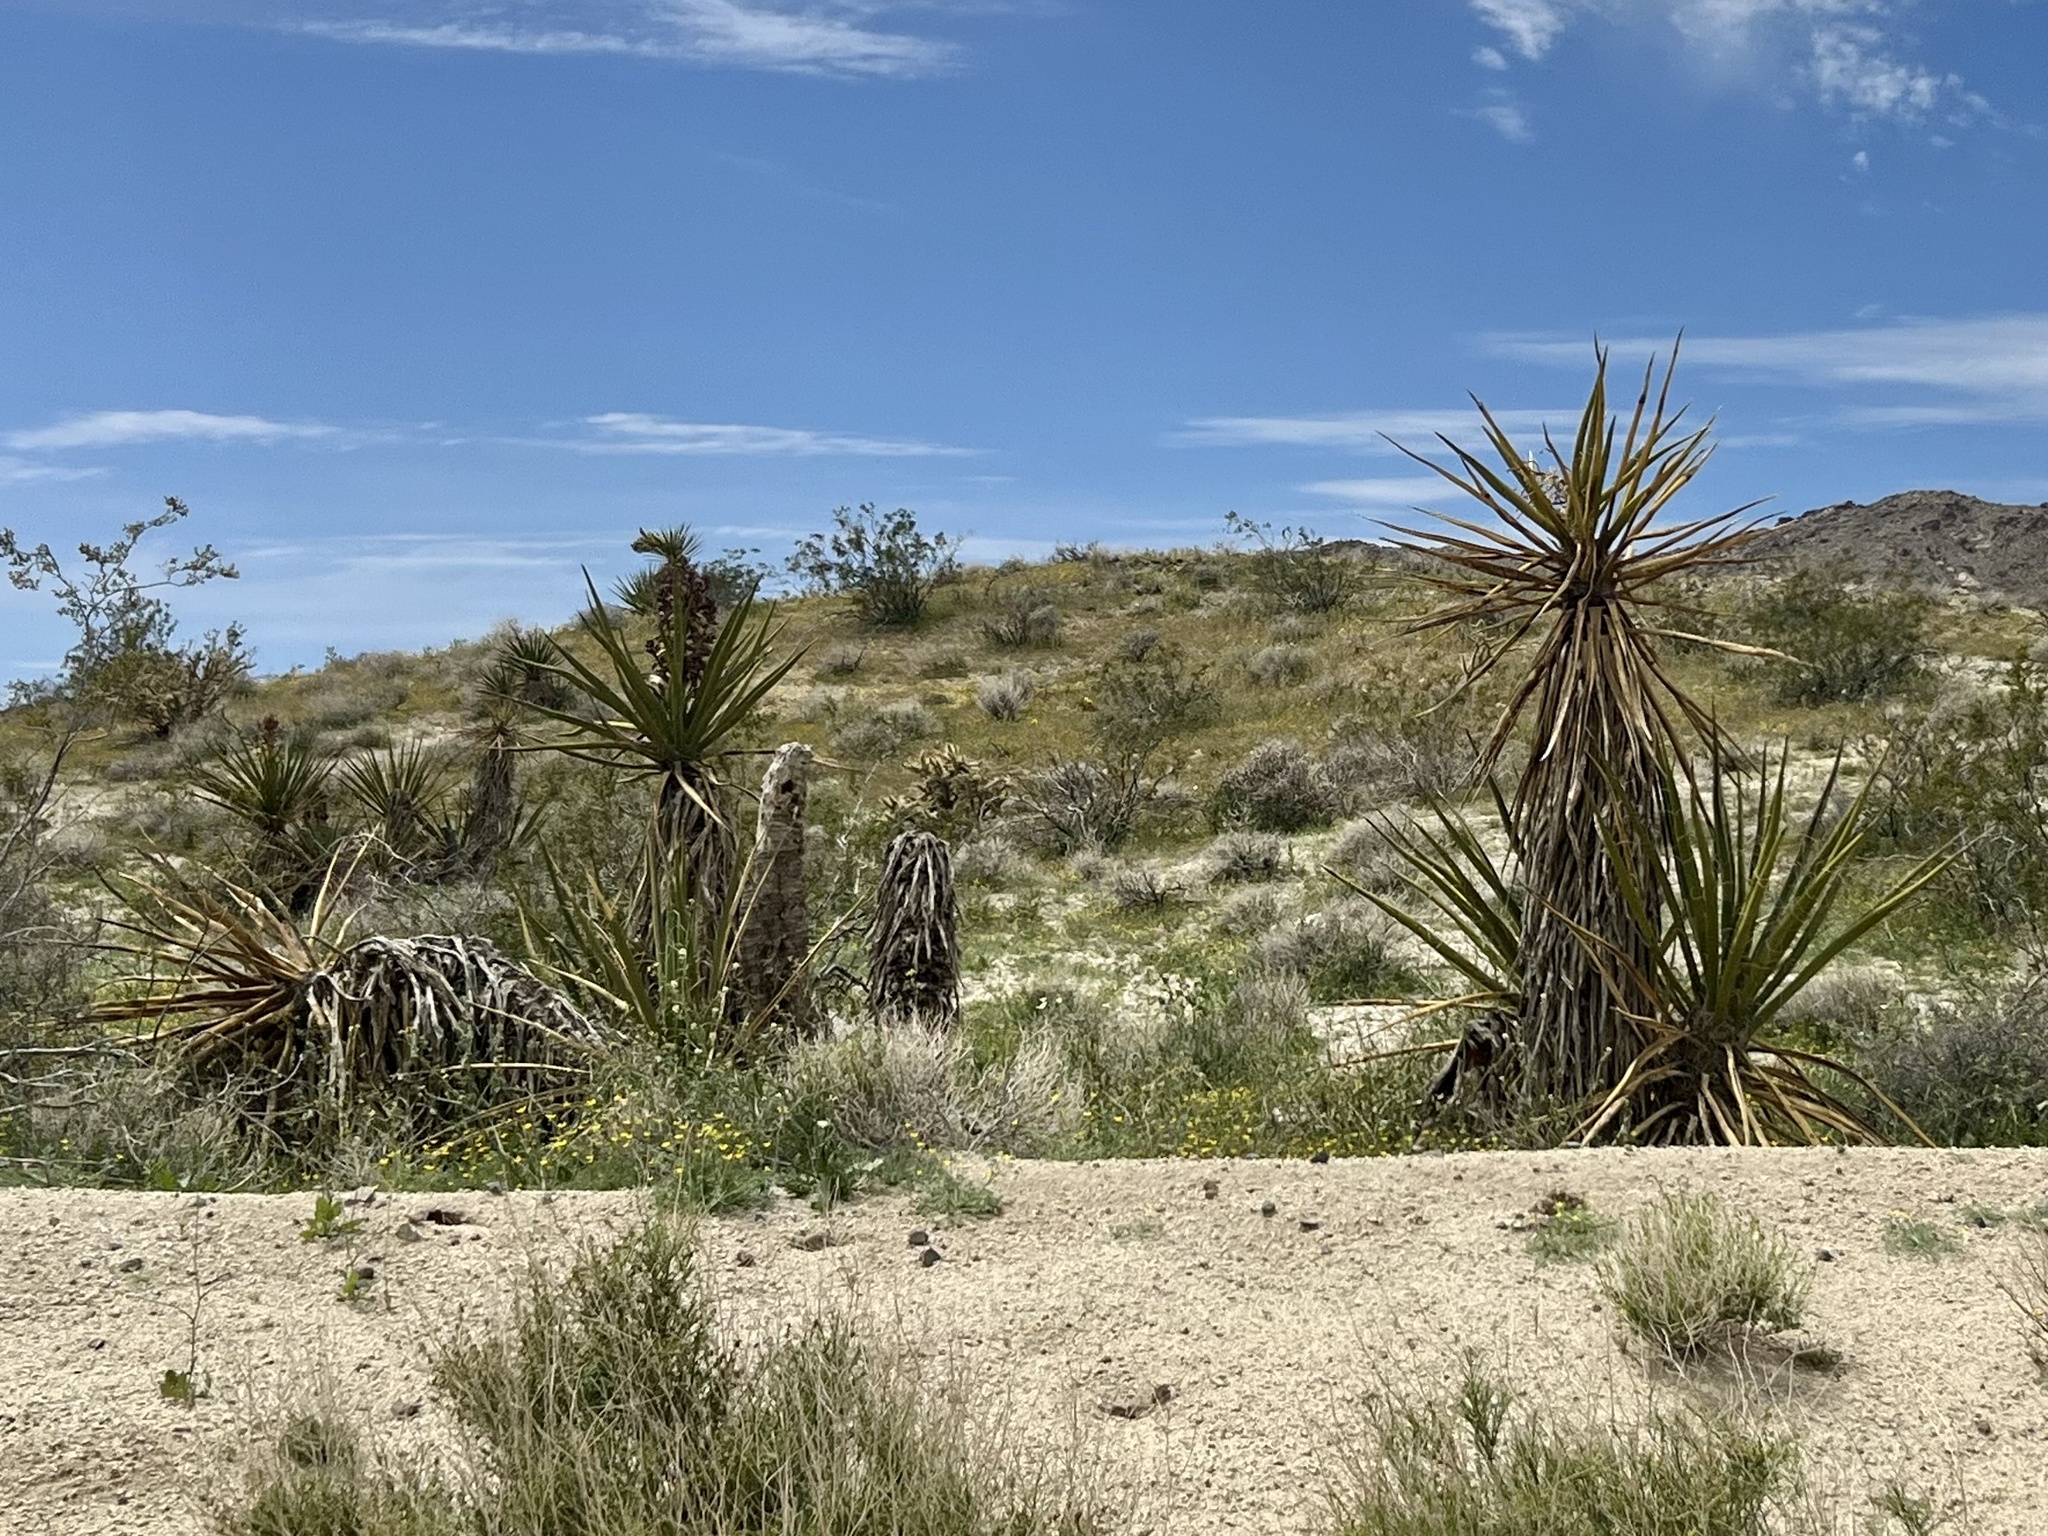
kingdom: Plantae
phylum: Tracheophyta
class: Liliopsida
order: Asparagales
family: Asparagaceae
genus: Yucca
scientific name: Yucca schidigera
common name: Mojave yucca
